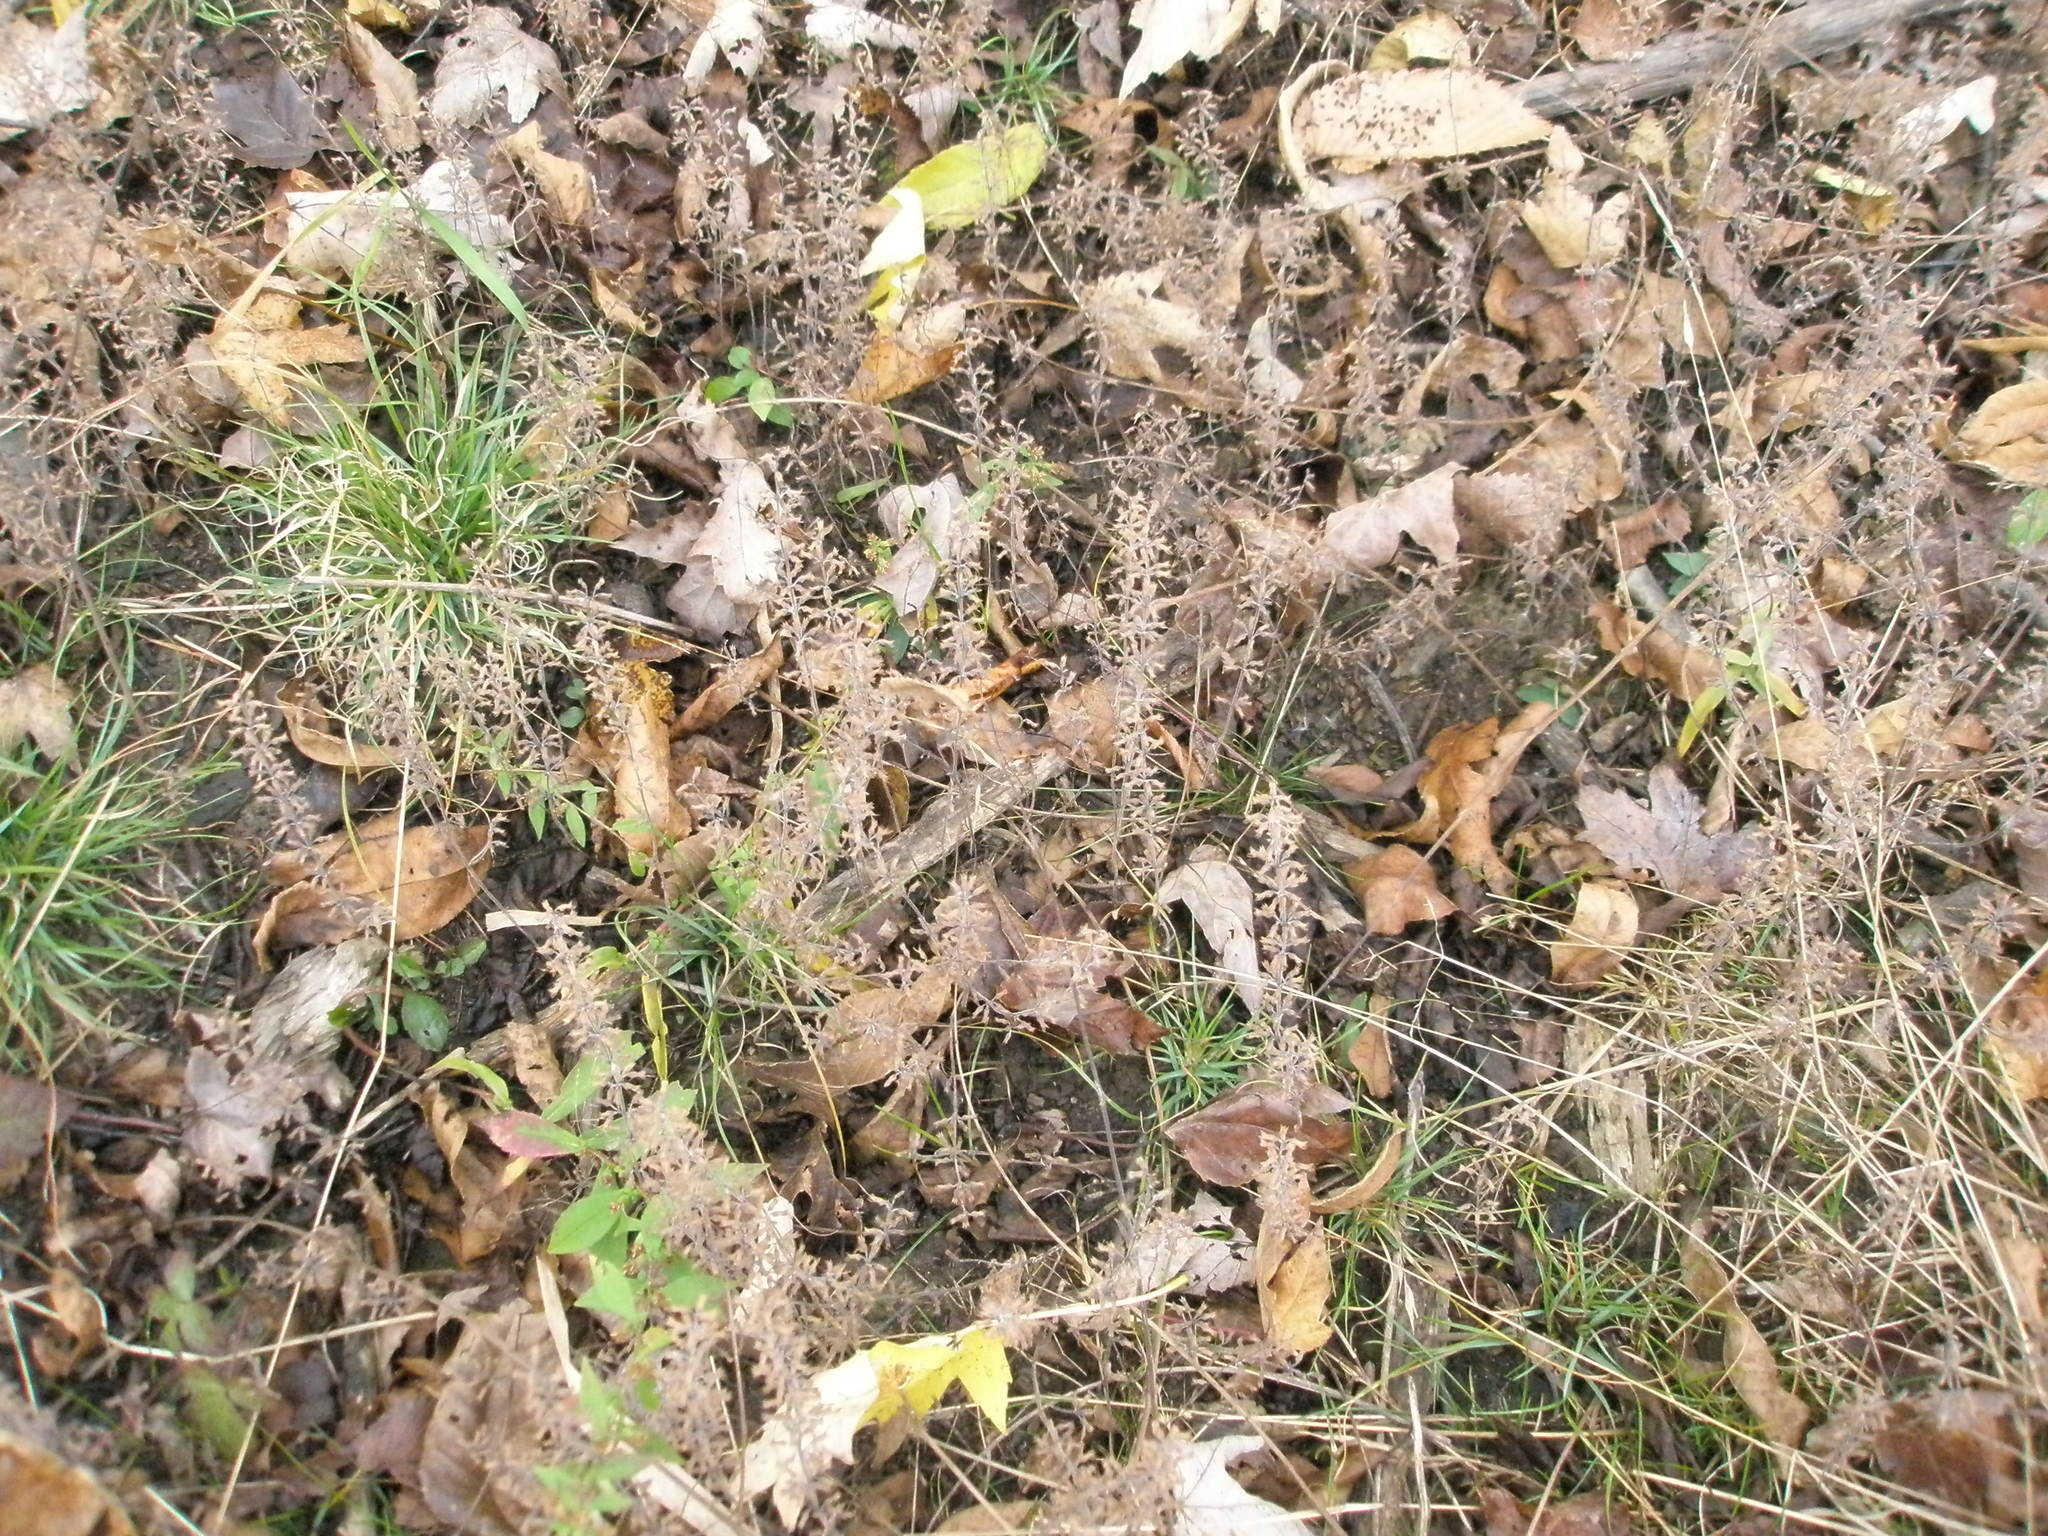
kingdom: Plantae
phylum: Tracheophyta
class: Magnoliopsida
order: Lamiales
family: Lamiaceae
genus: Hedeoma
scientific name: Hedeoma pulegioides
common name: American false pennyroyal
